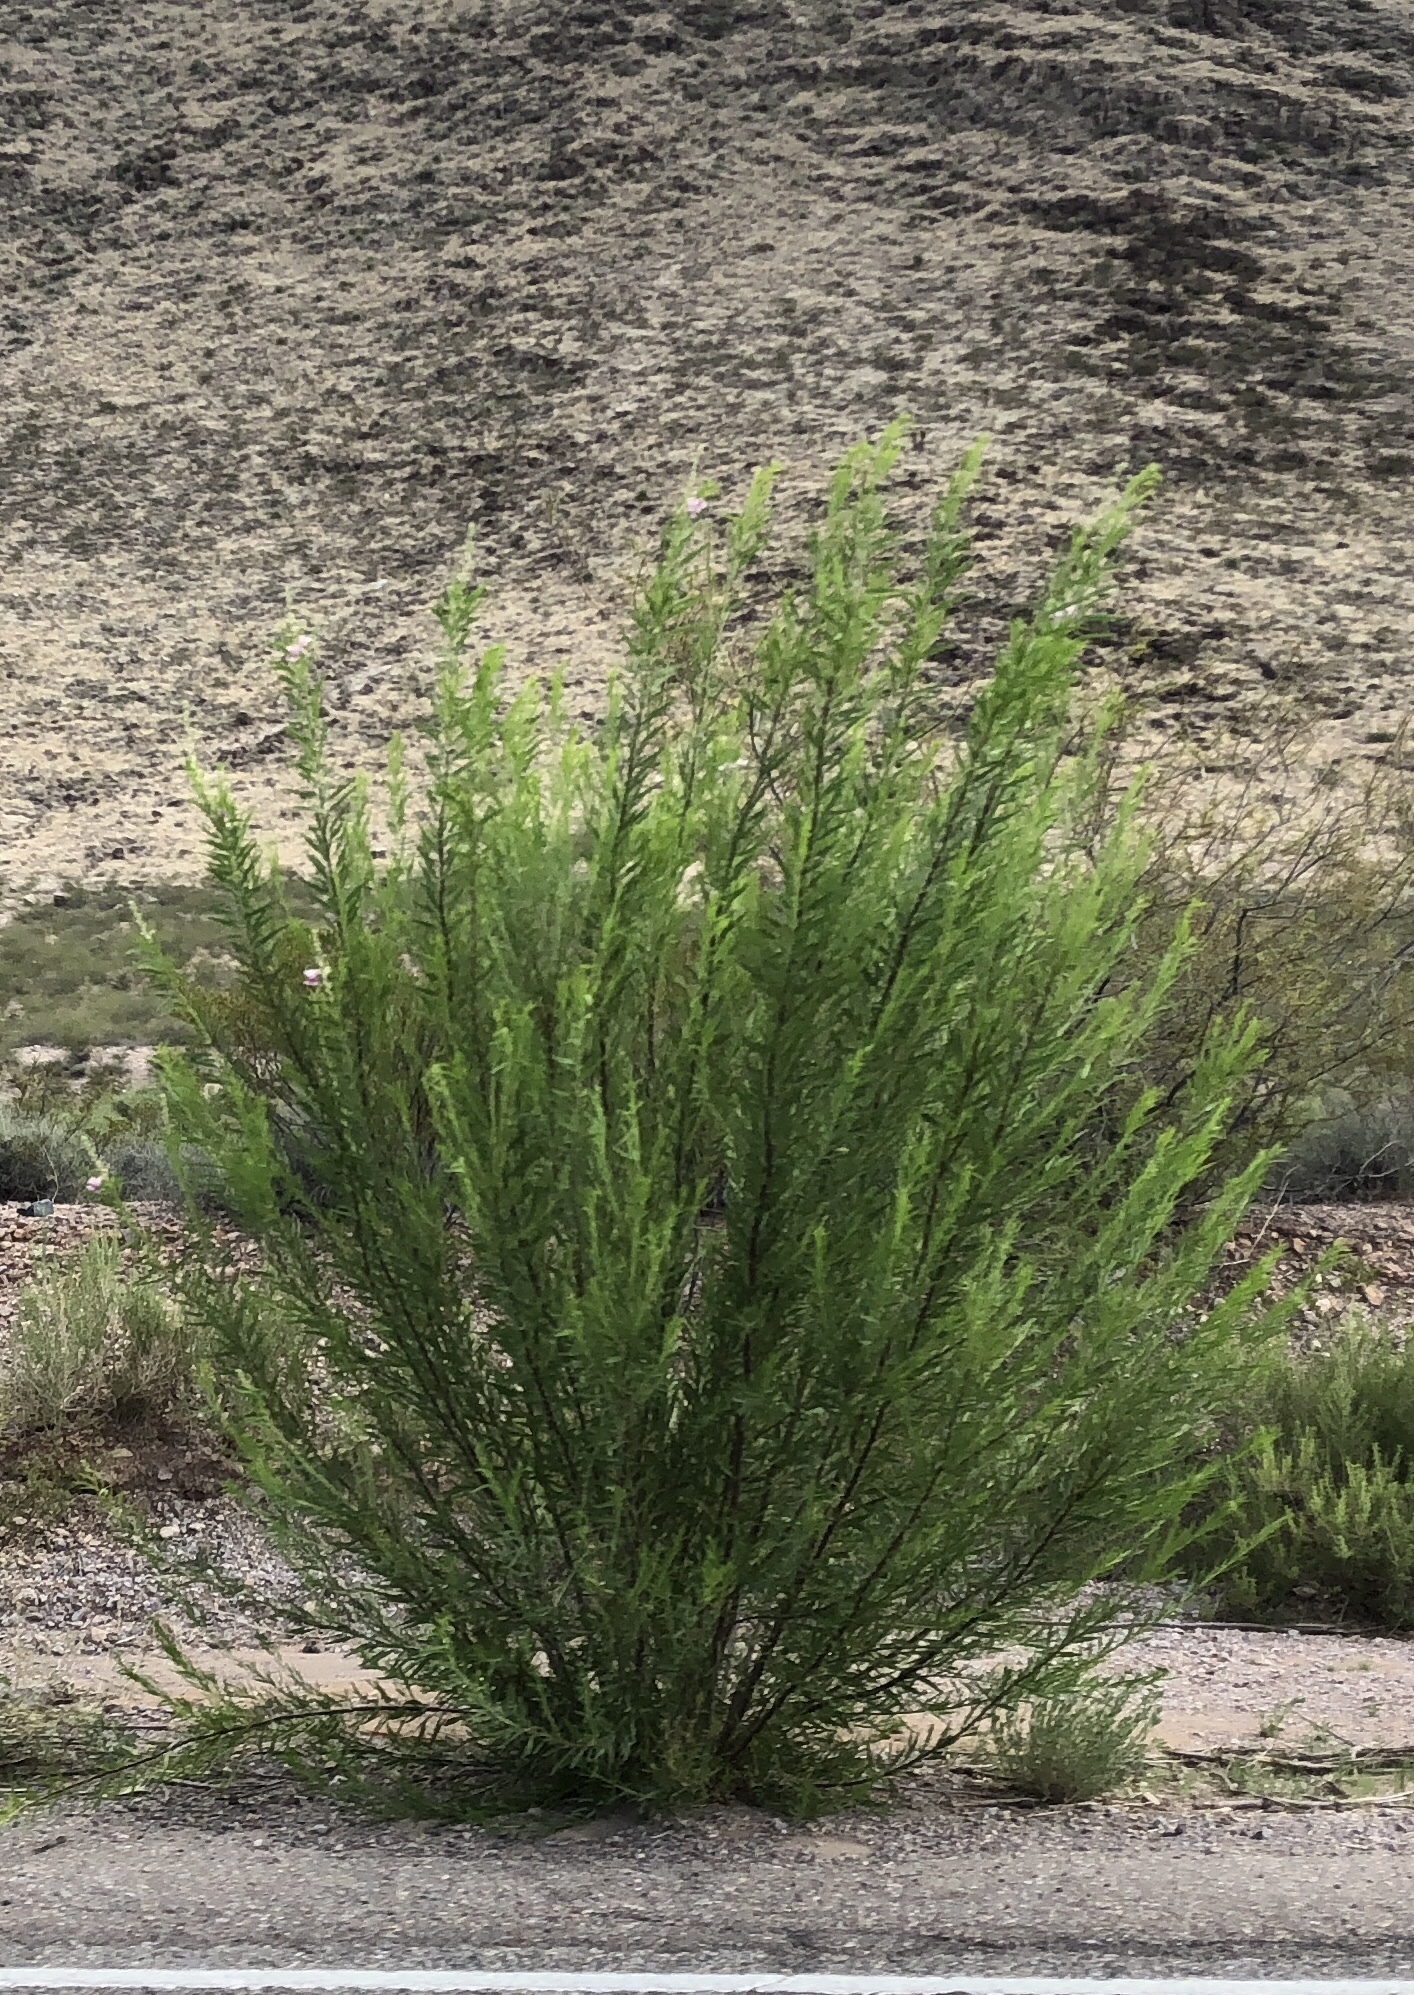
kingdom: Plantae
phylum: Tracheophyta
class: Magnoliopsida
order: Lamiales
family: Bignoniaceae
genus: Chilopsis
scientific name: Chilopsis linearis
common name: Desert-willow
